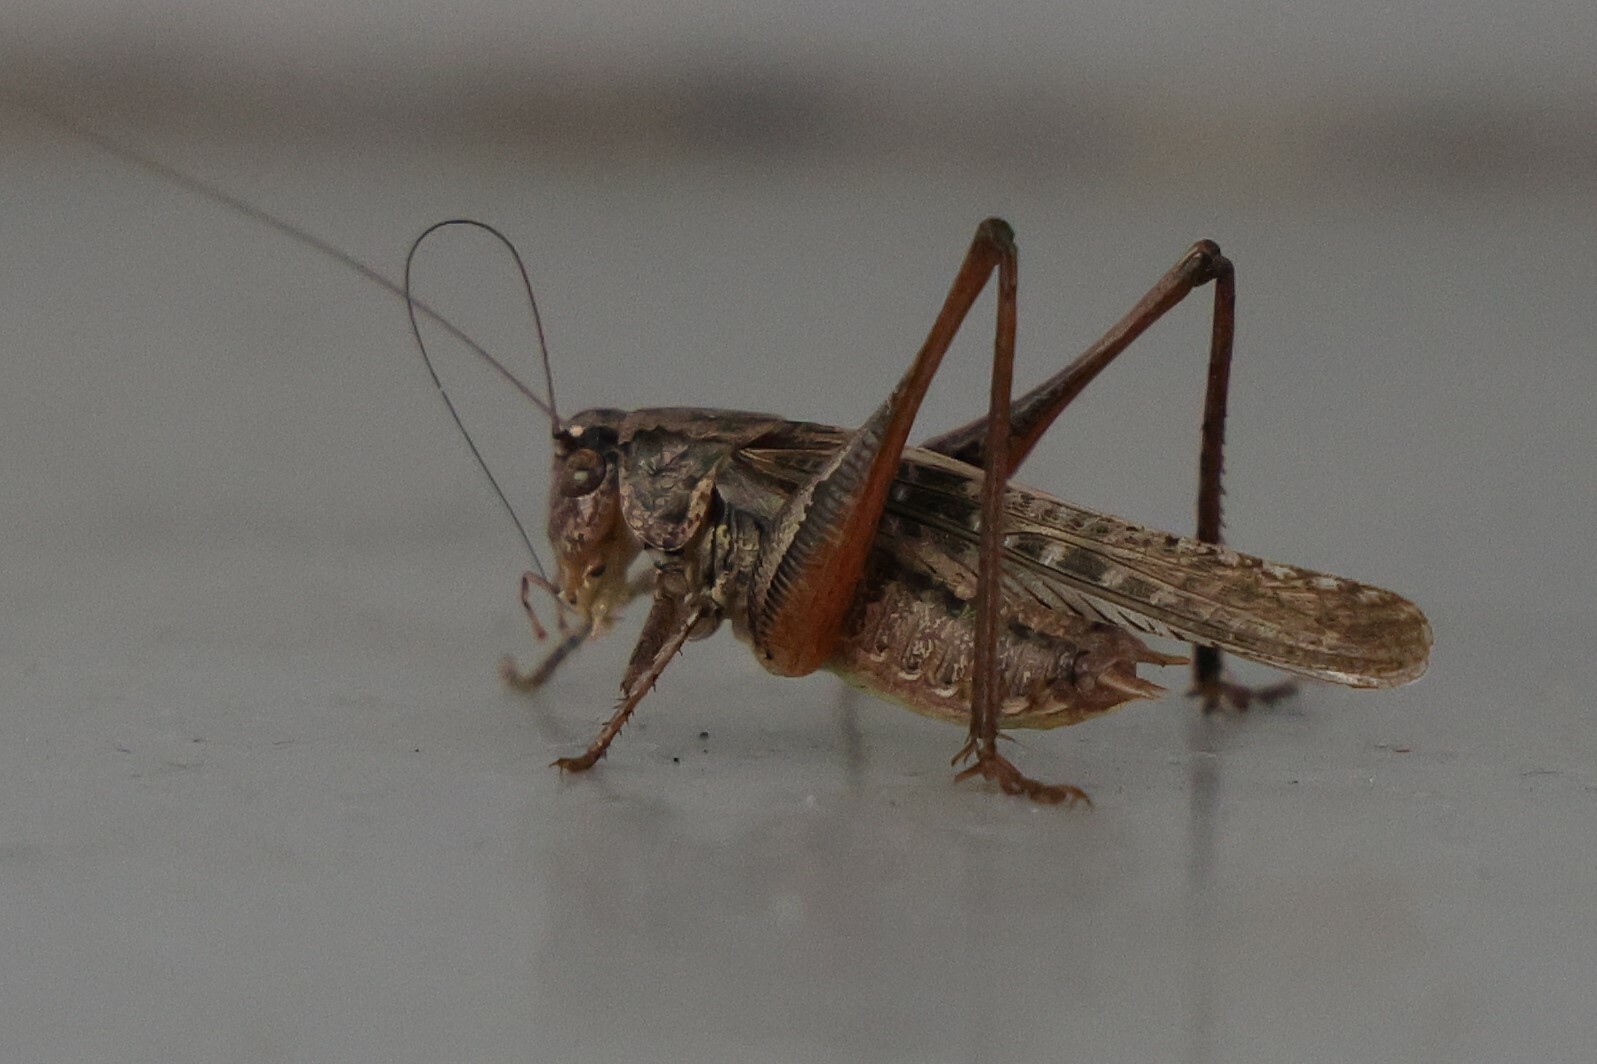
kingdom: Animalia
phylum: Arthropoda
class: Insecta
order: Orthoptera
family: Tettigoniidae
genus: Platycleis
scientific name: Platycleis albopunctata
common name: Grey bush-cricket
